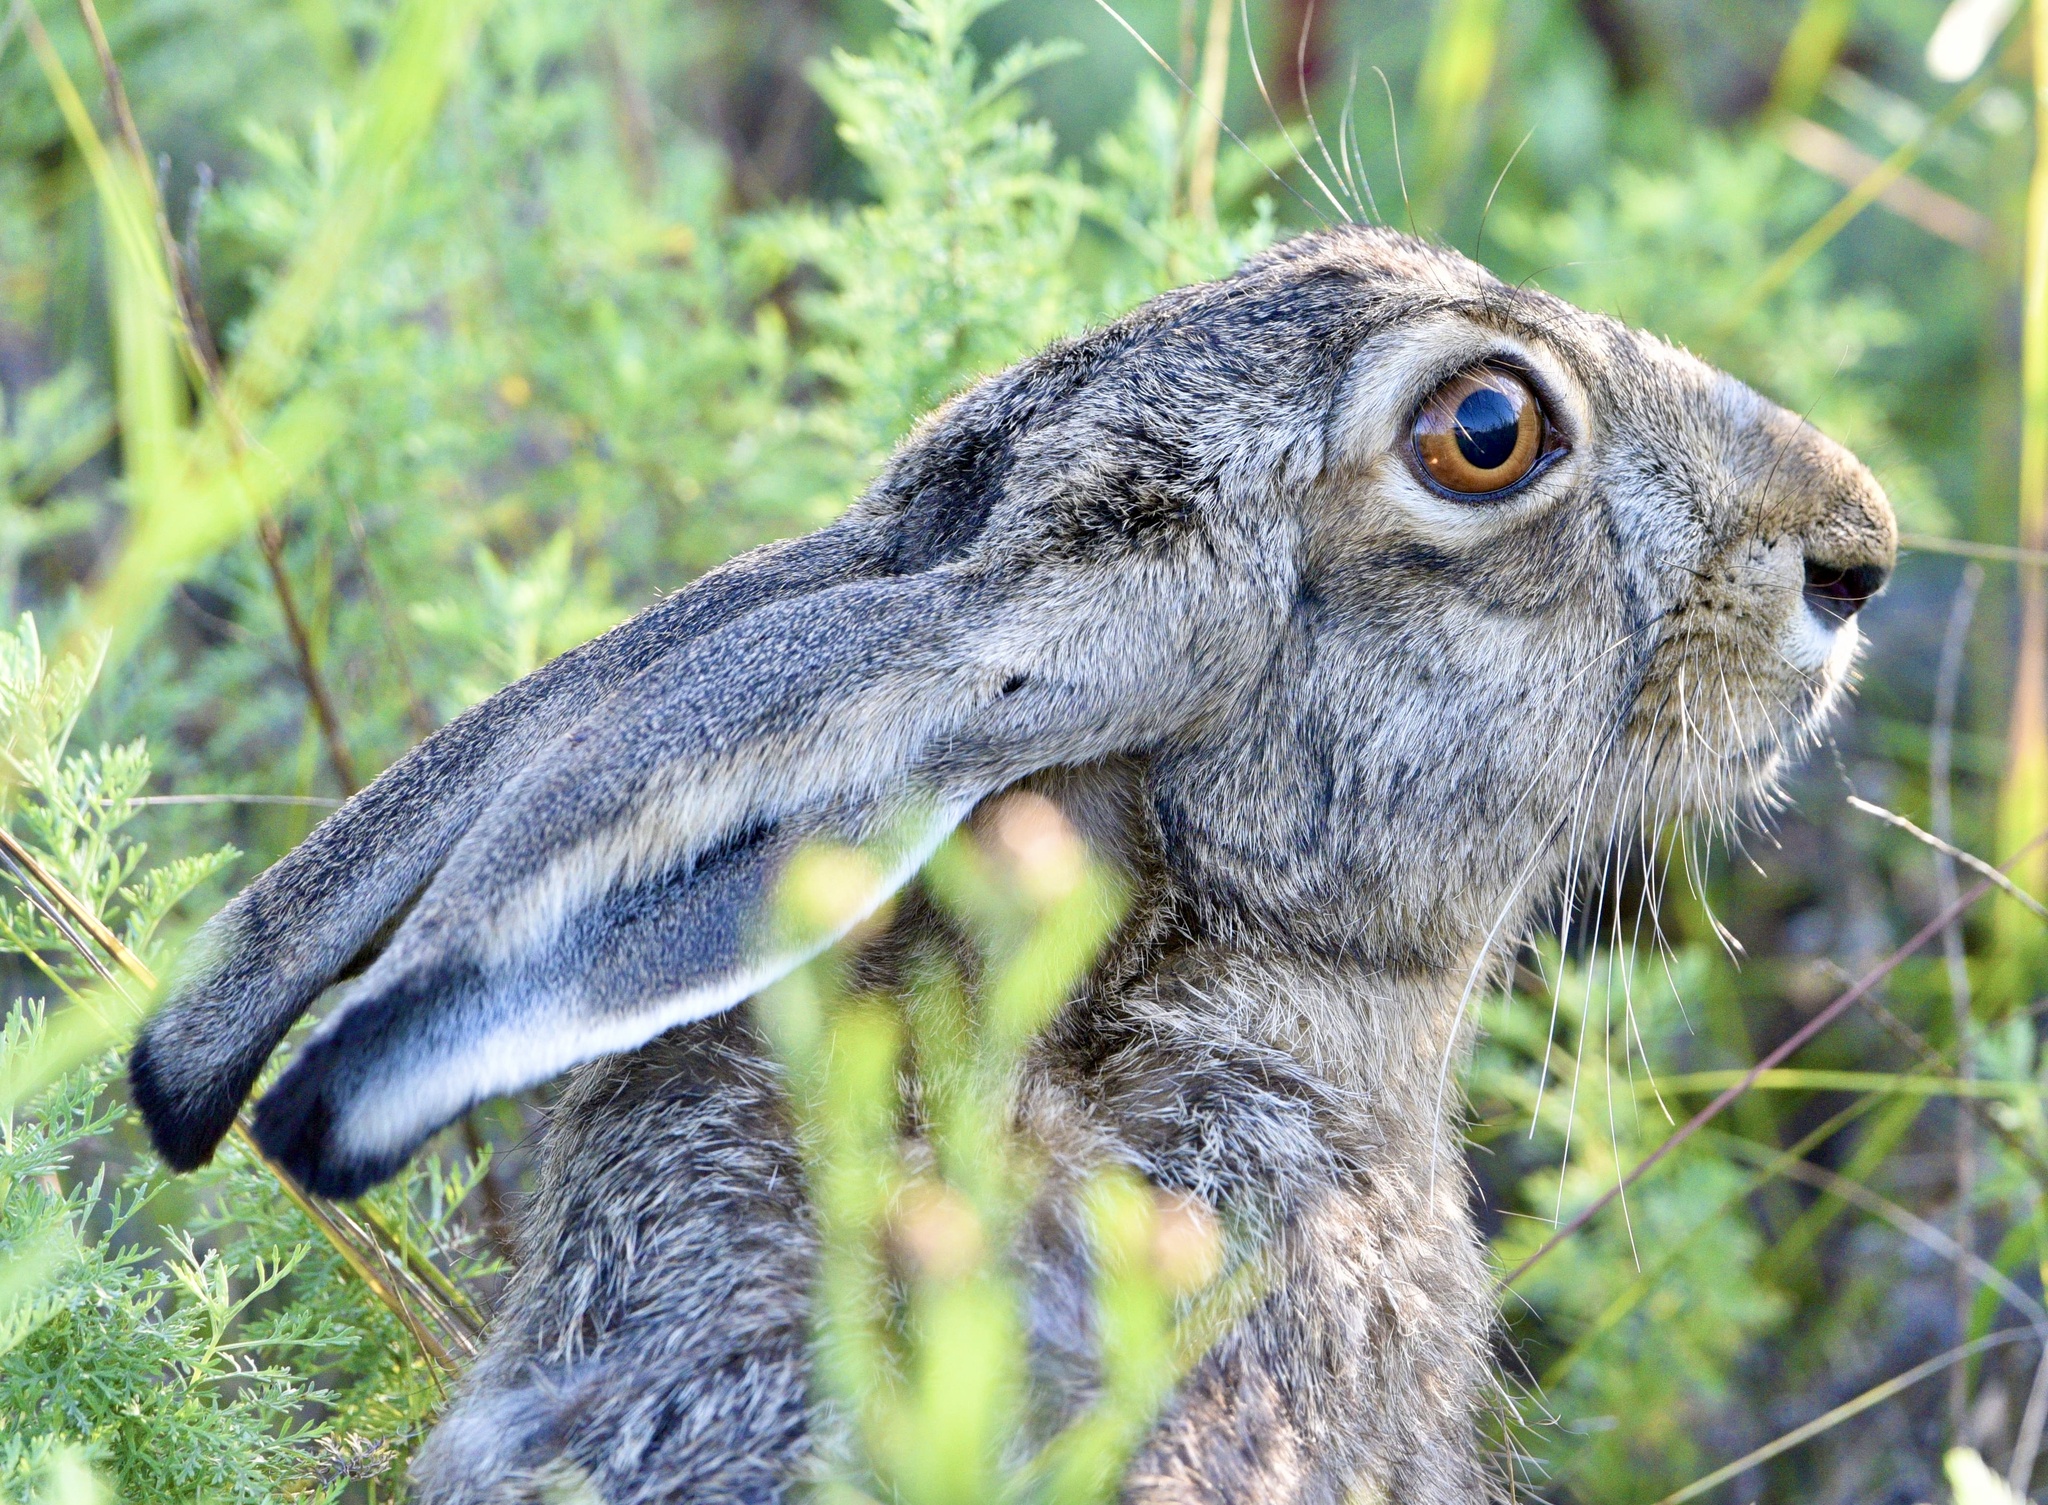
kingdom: Animalia
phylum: Chordata
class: Mammalia
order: Lagomorpha
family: Leporidae
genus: Lepus
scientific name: Lepus europaeus
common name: European hare
